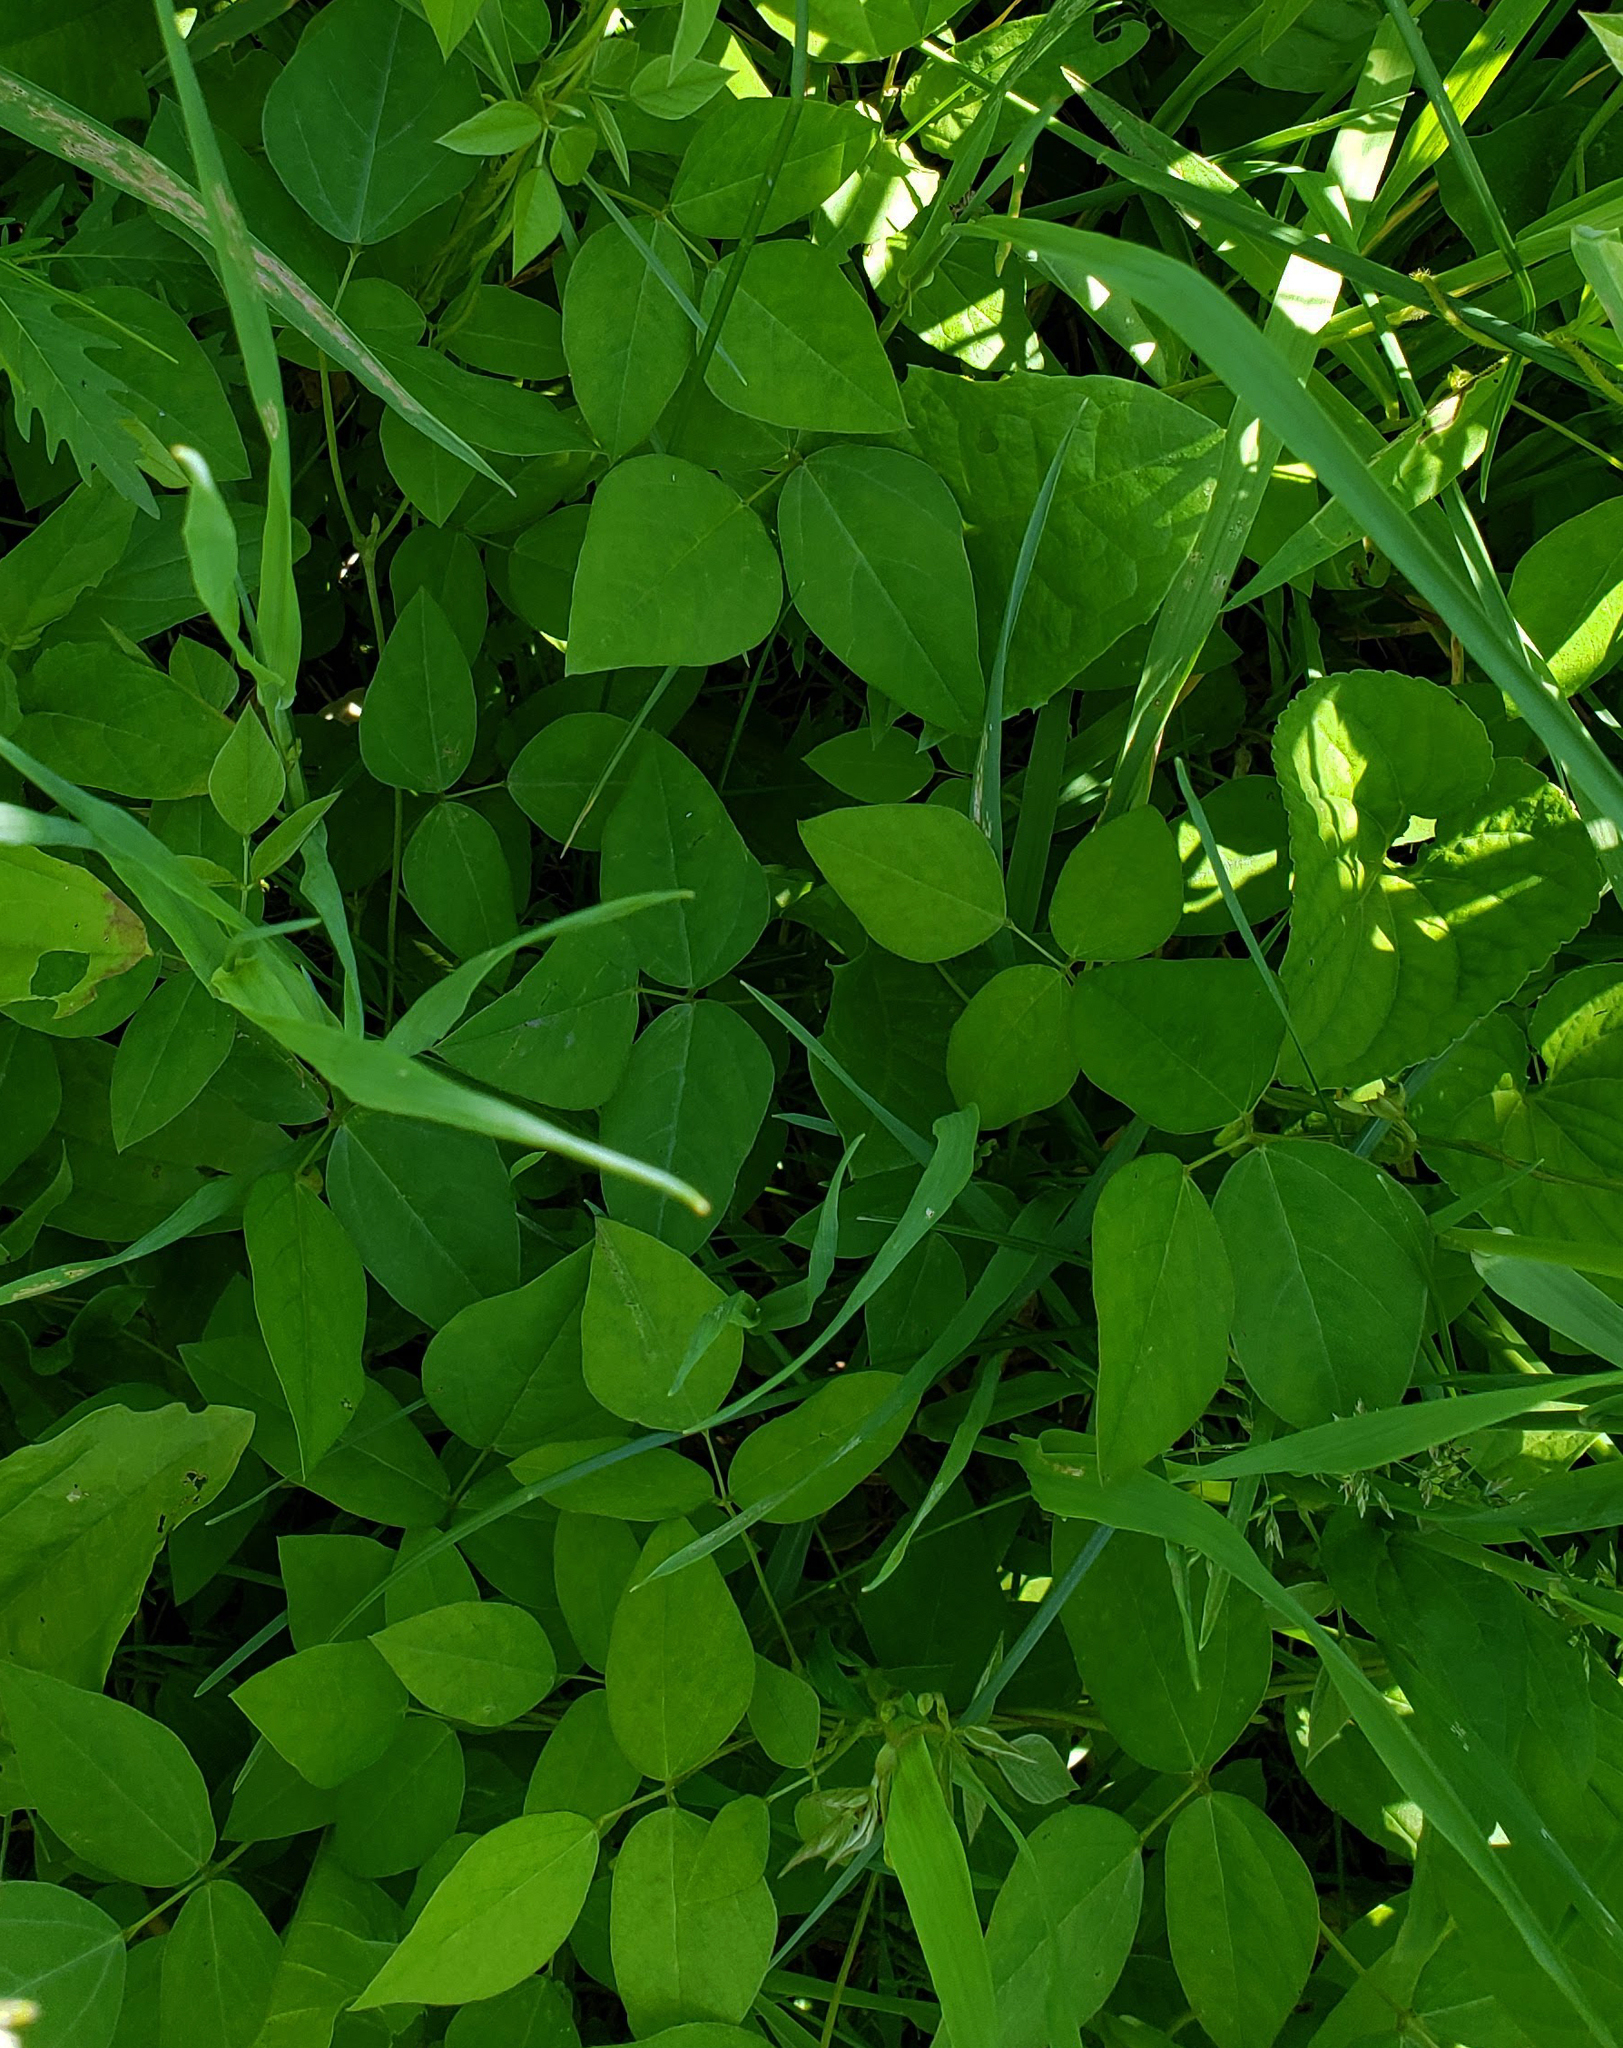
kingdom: Plantae
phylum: Tracheophyta
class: Magnoliopsida
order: Fabales
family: Fabaceae
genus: Amphicarpaea
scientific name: Amphicarpaea bracteata
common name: American hog peanut
